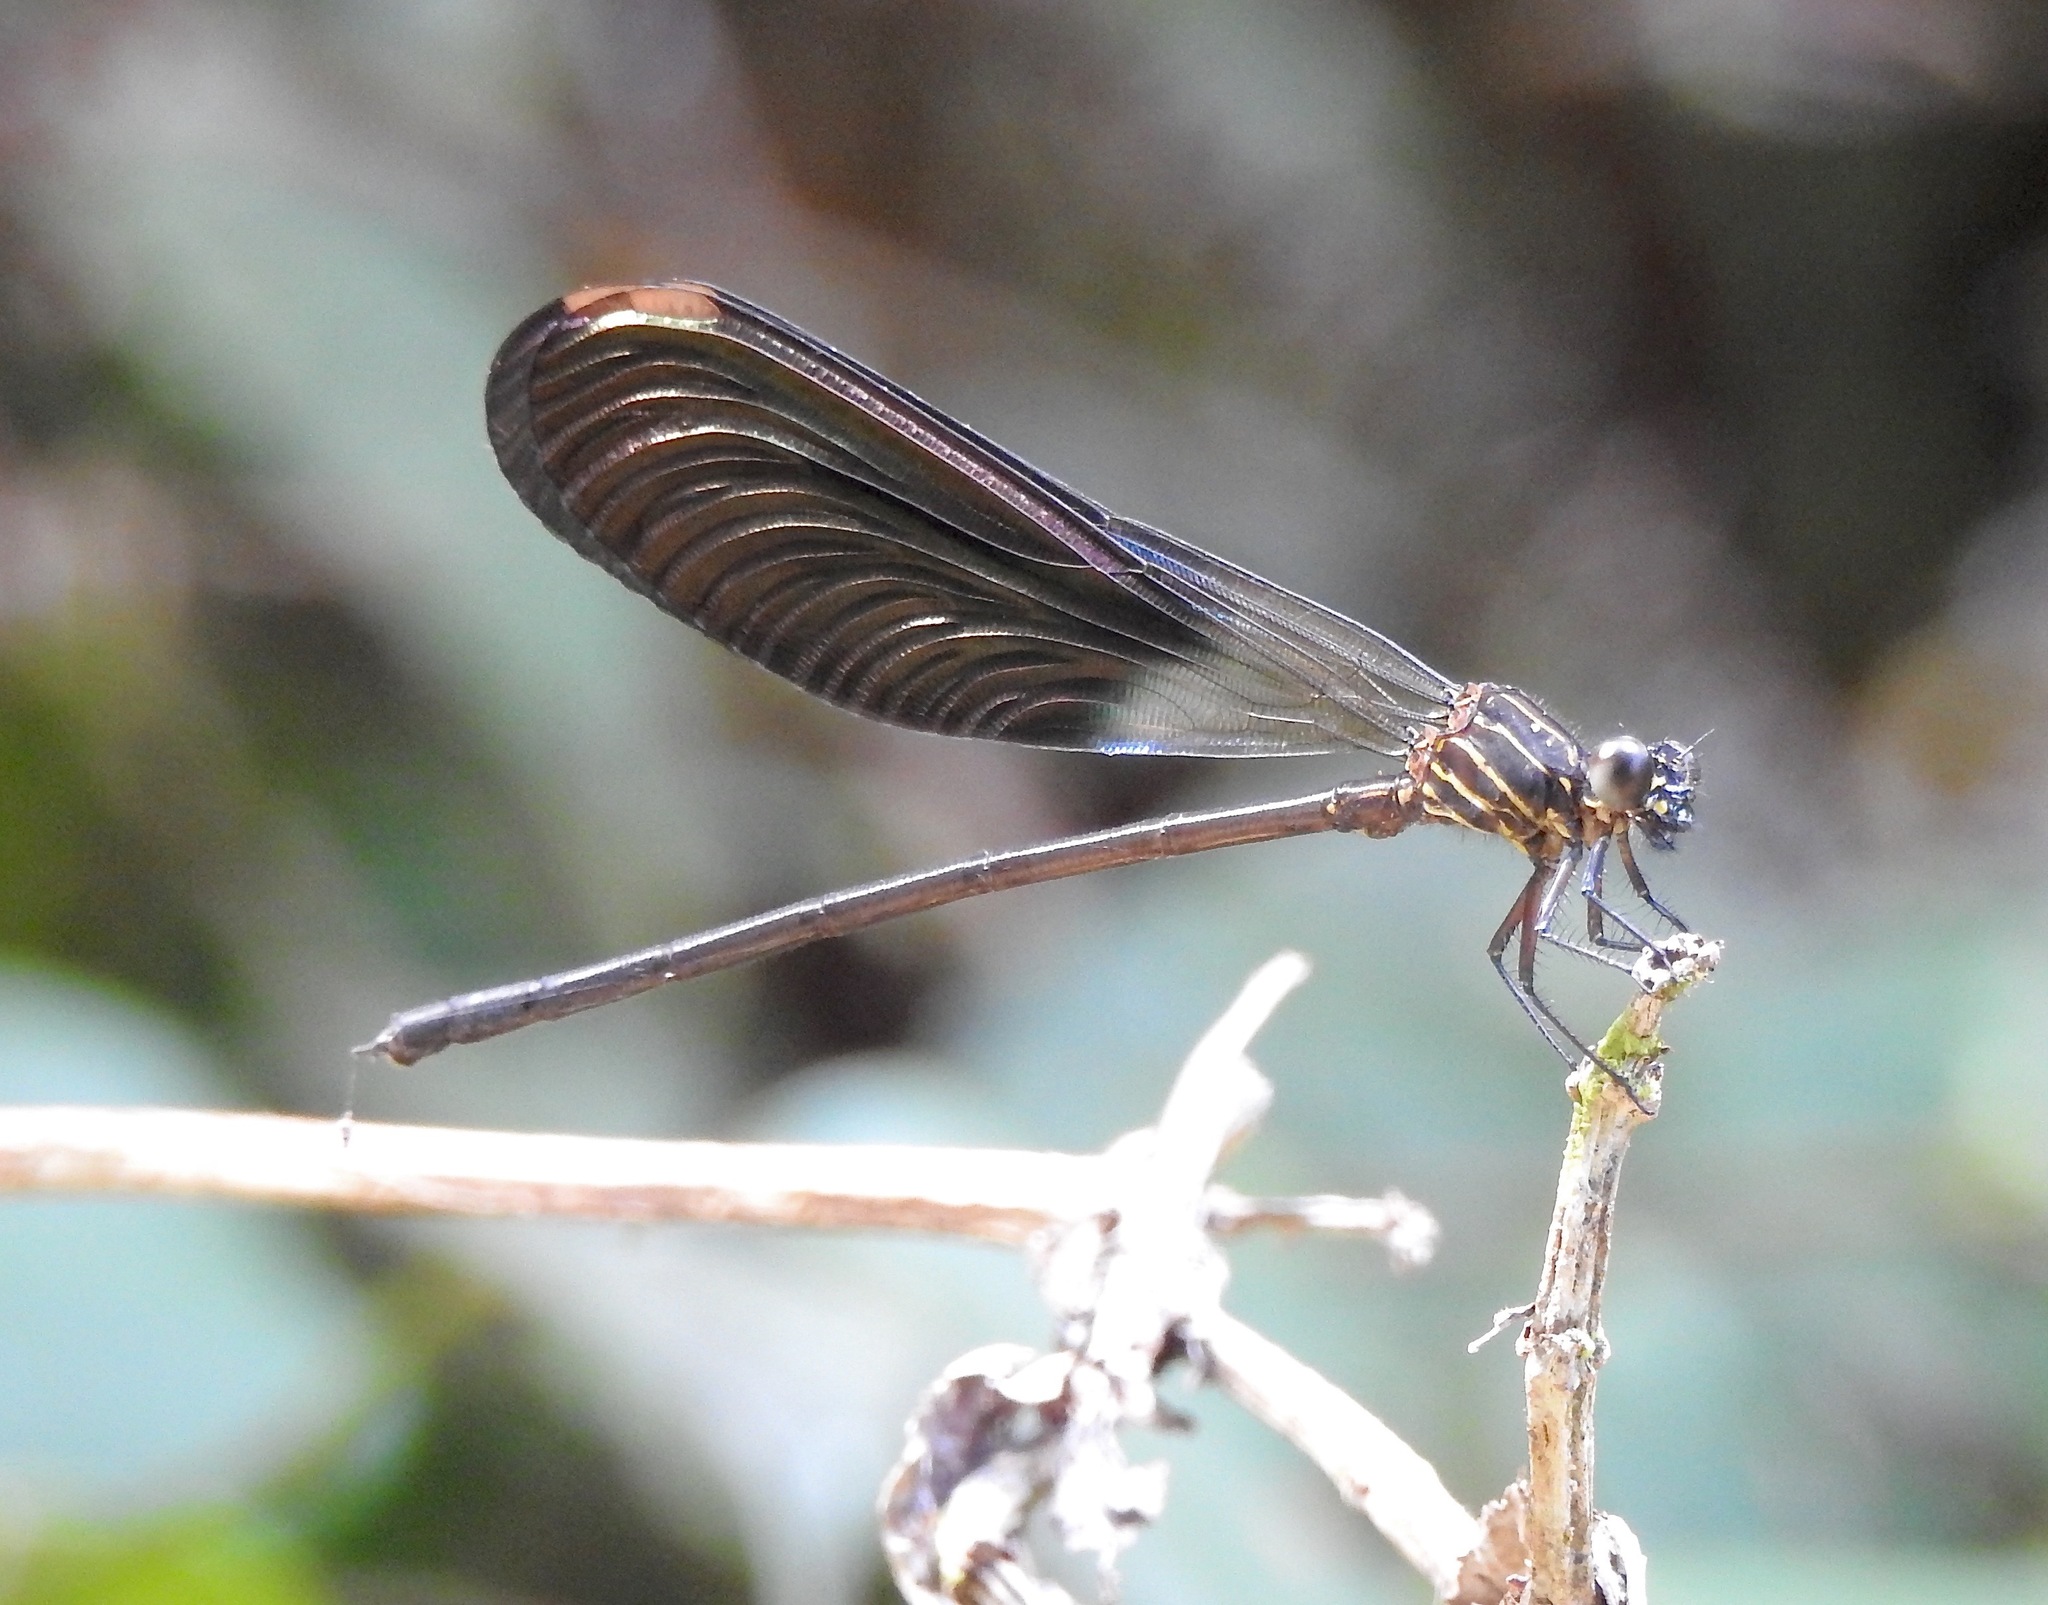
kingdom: Animalia
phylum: Arthropoda
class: Insecta
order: Odonata
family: Polythoridae
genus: Polythore
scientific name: Polythore gigantea
